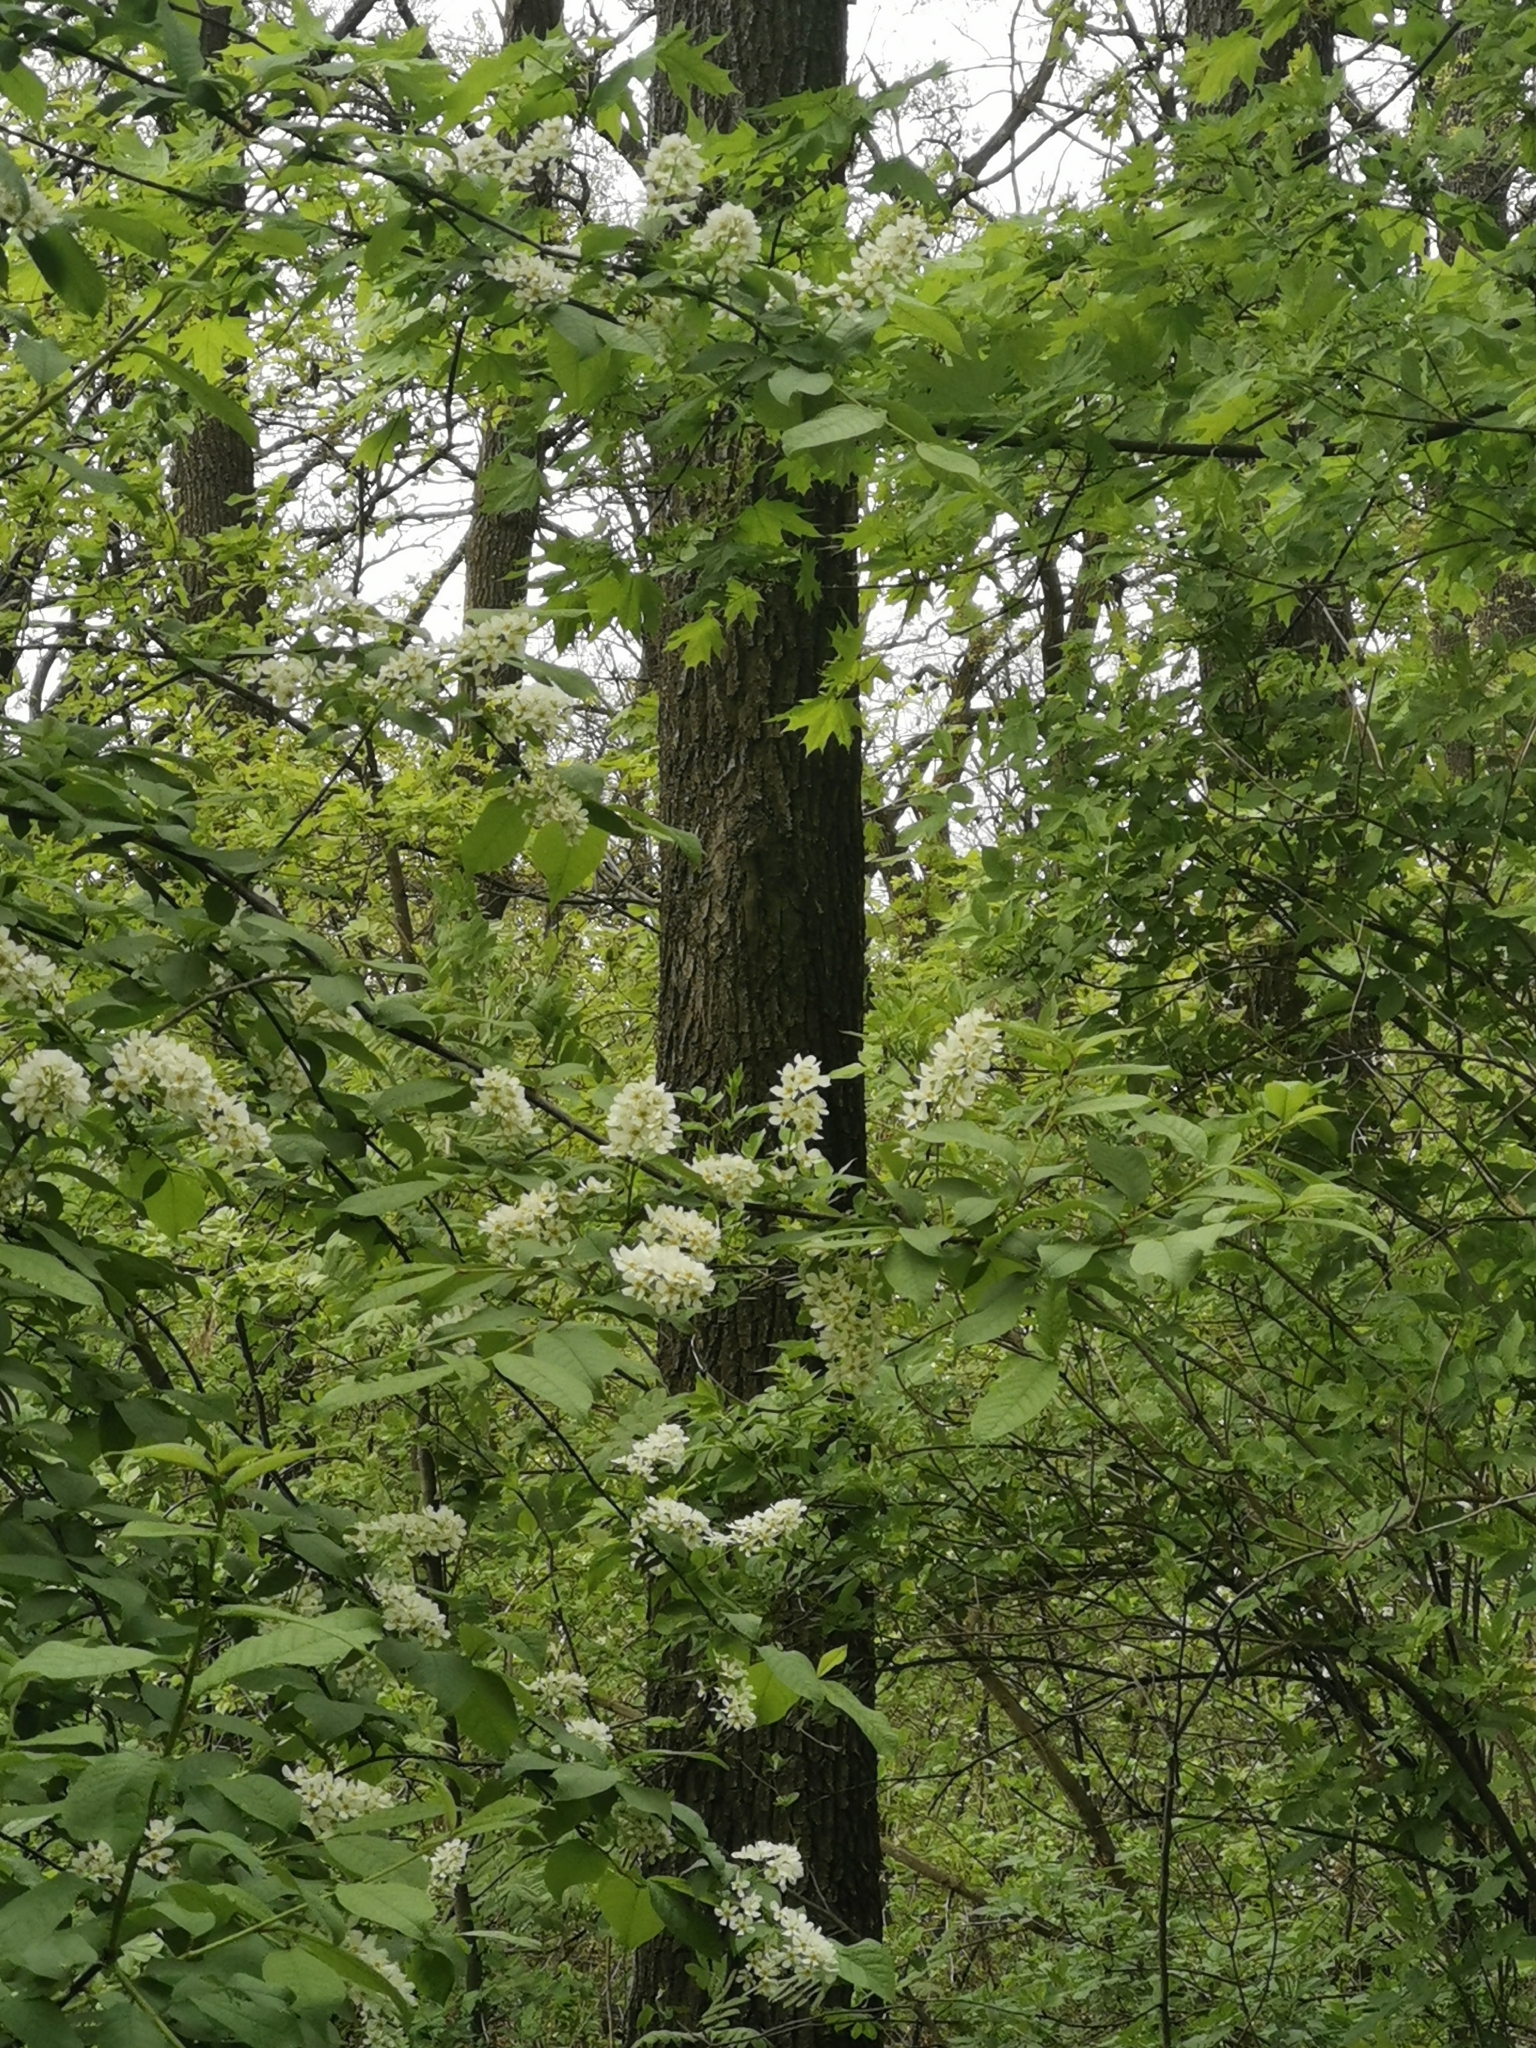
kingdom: Plantae
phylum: Tracheophyta
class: Magnoliopsida
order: Rosales
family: Rosaceae
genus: Prunus
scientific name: Prunus padus
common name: Bird cherry
